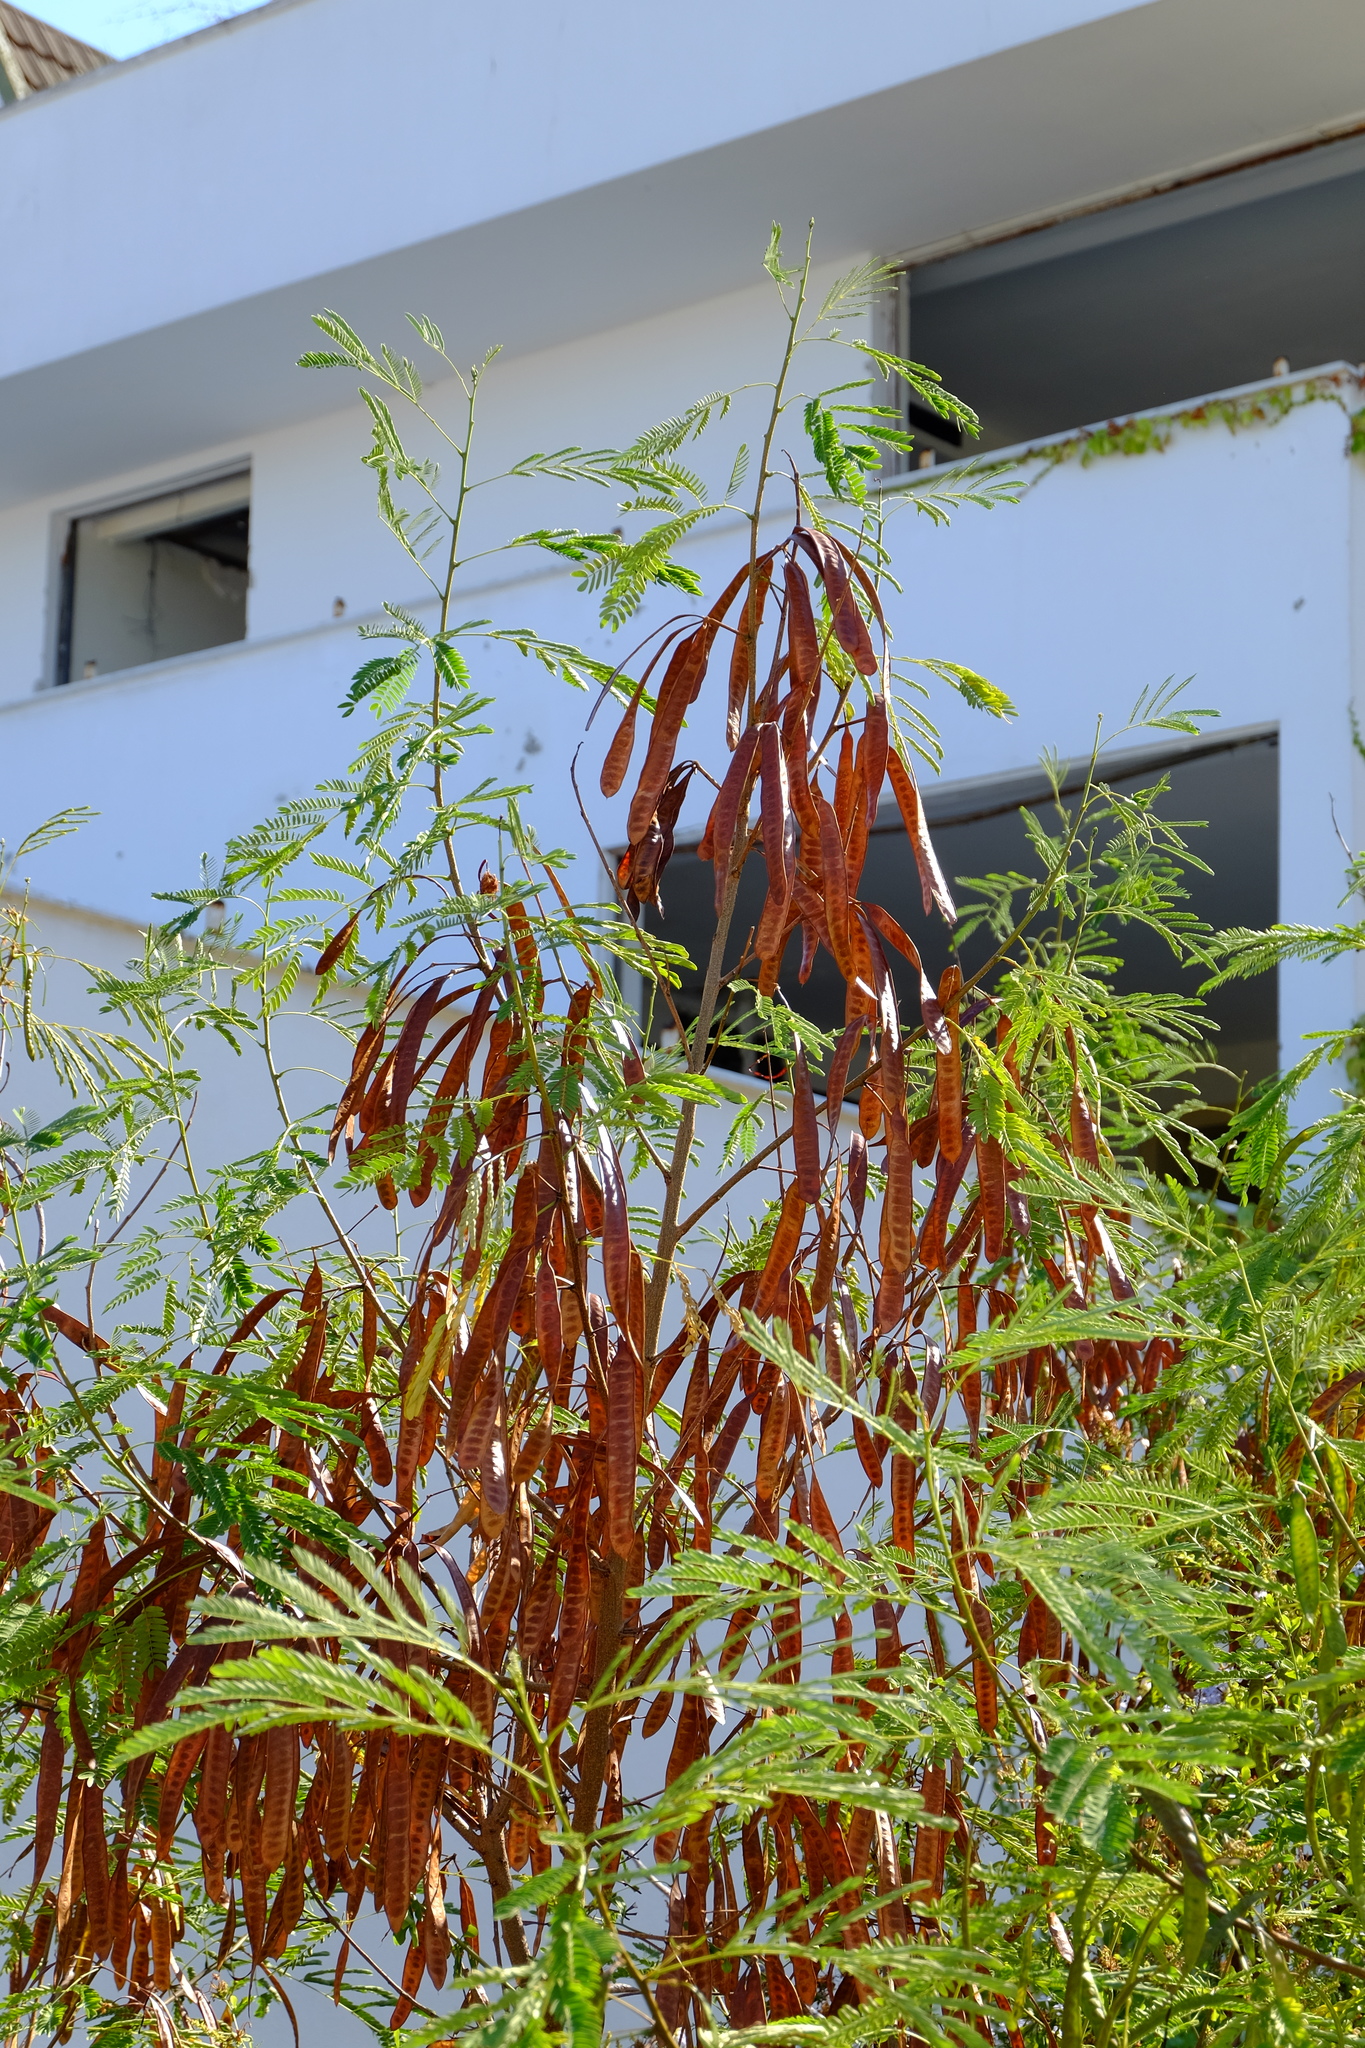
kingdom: Plantae
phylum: Tracheophyta
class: Magnoliopsida
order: Fabales
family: Fabaceae
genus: Leucaena
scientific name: Leucaena leucocephala
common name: White leadtree
